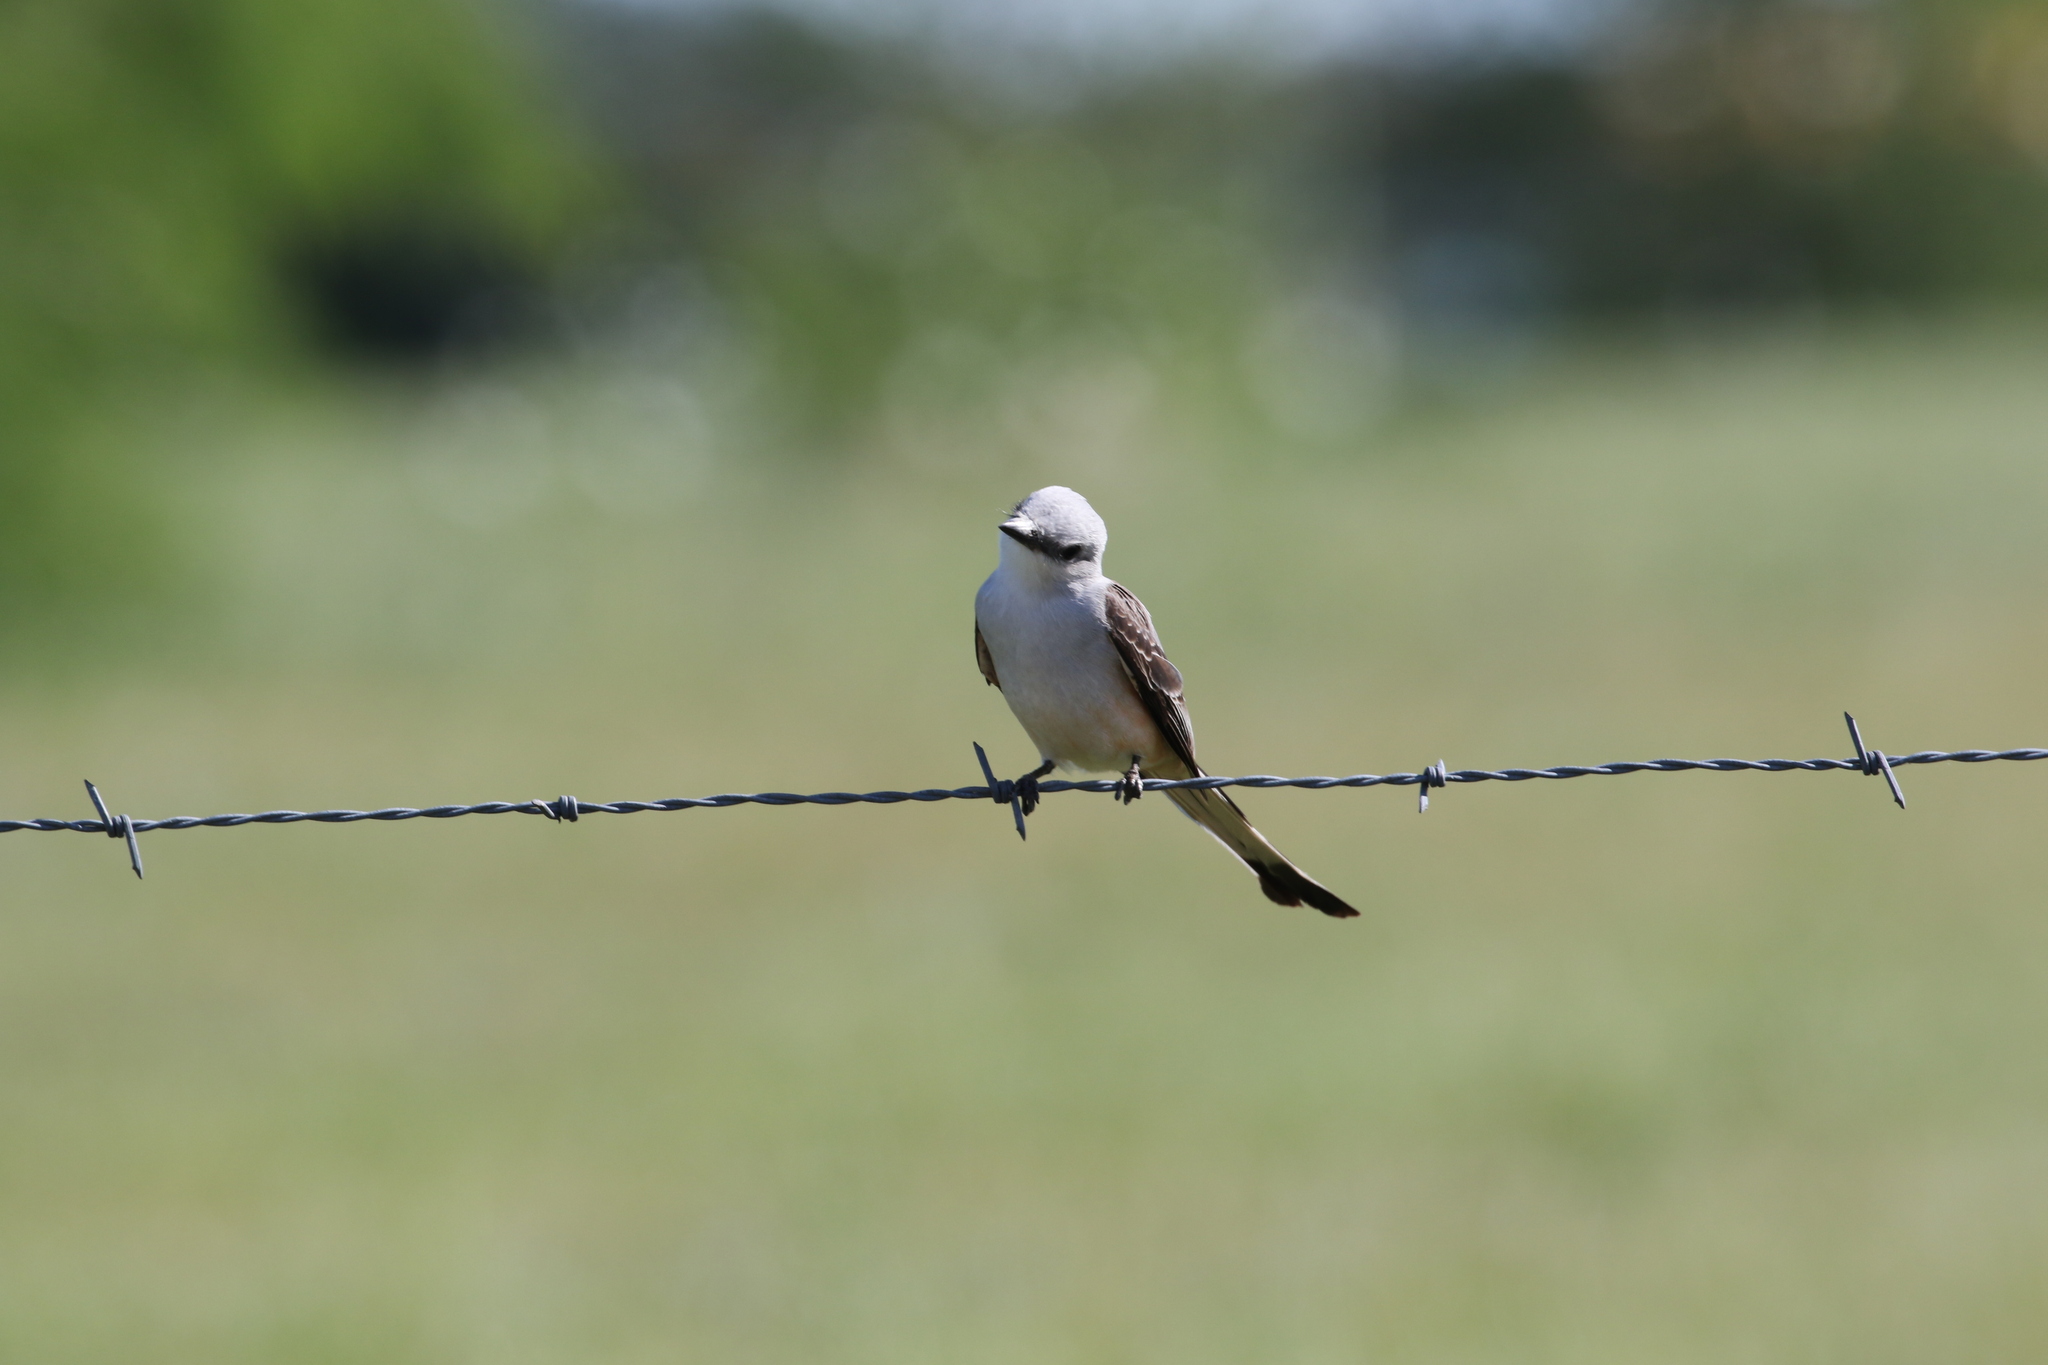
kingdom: Animalia
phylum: Chordata
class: Aves
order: Passeriformes
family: Tyrannidae
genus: Tyrannus
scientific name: Tyrannus forficatus
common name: Scissor-tailed flycatcher
